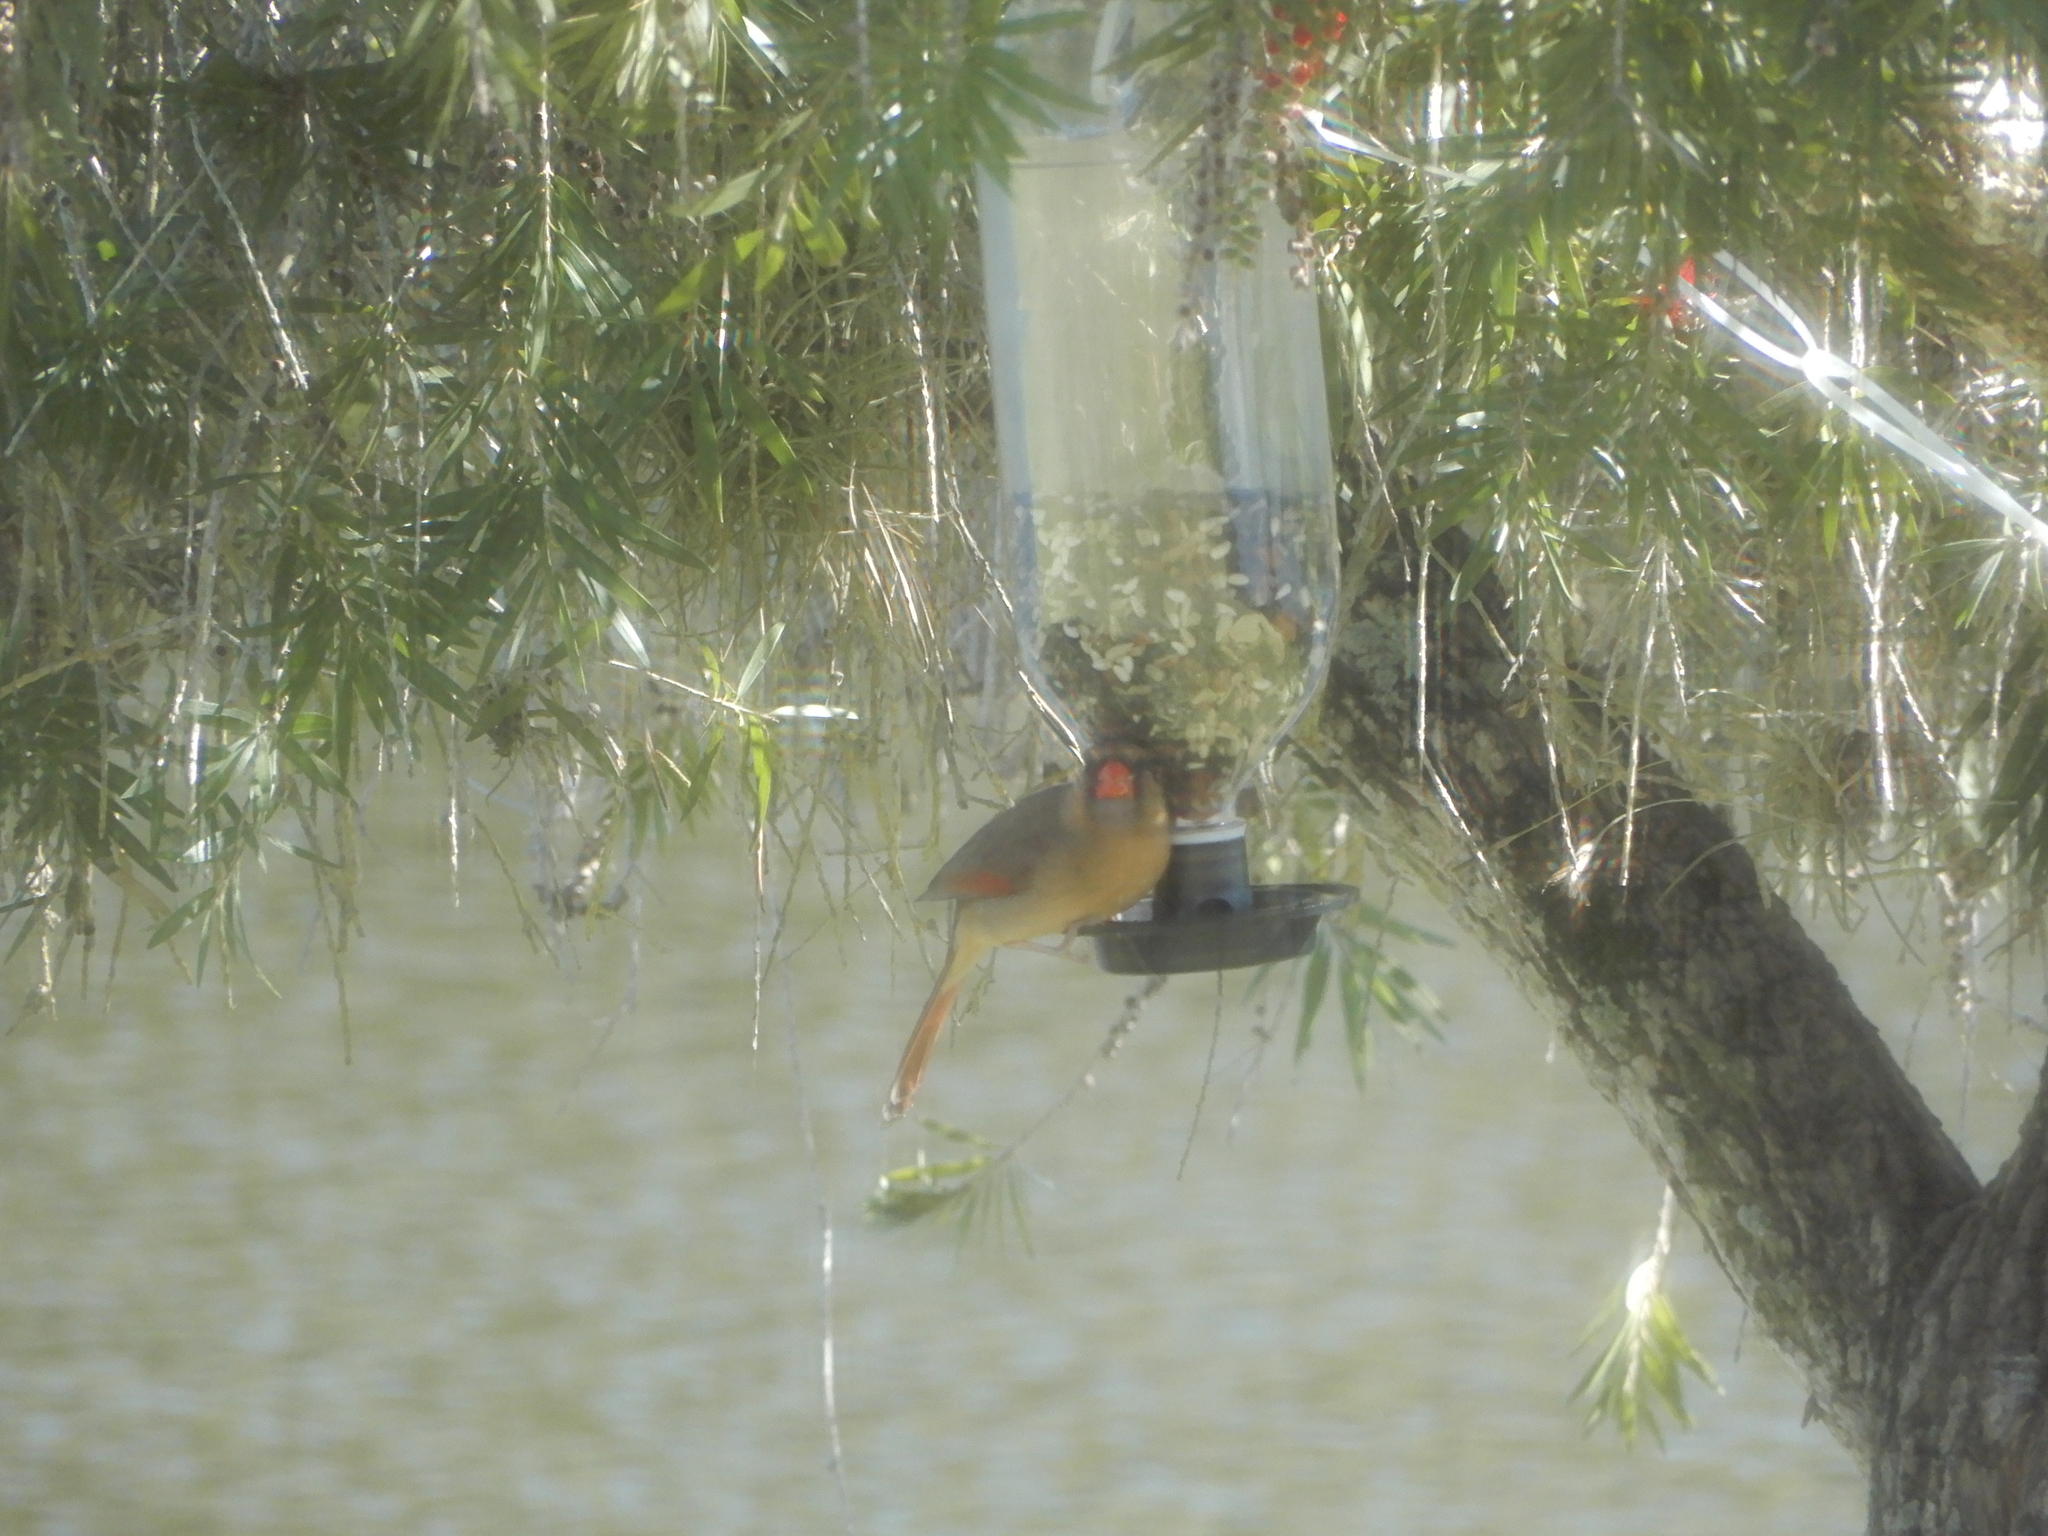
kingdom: Animalia
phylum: Chordata
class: Aves
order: Passeriformes
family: Cardinalidae
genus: Cardinalis
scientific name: Cardinalis cardinalis
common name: Northern cardinal
